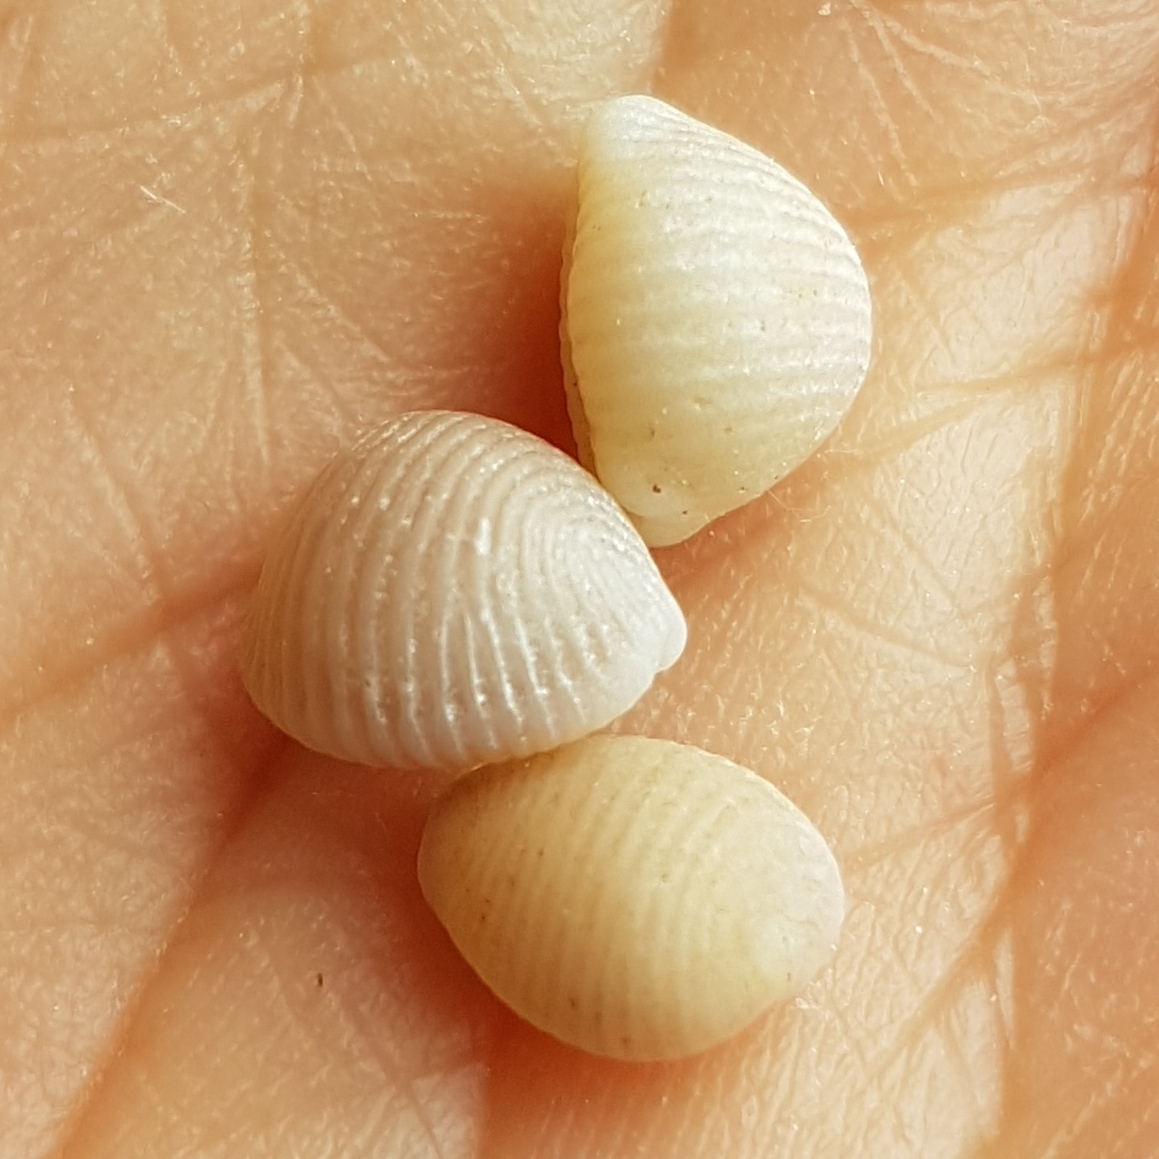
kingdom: Animalia
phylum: Mollusca
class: Gastropoda
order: Littorinimorpha
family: Triviidae
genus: Trivia
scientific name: Trivia arctica
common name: Arctic cowrie
